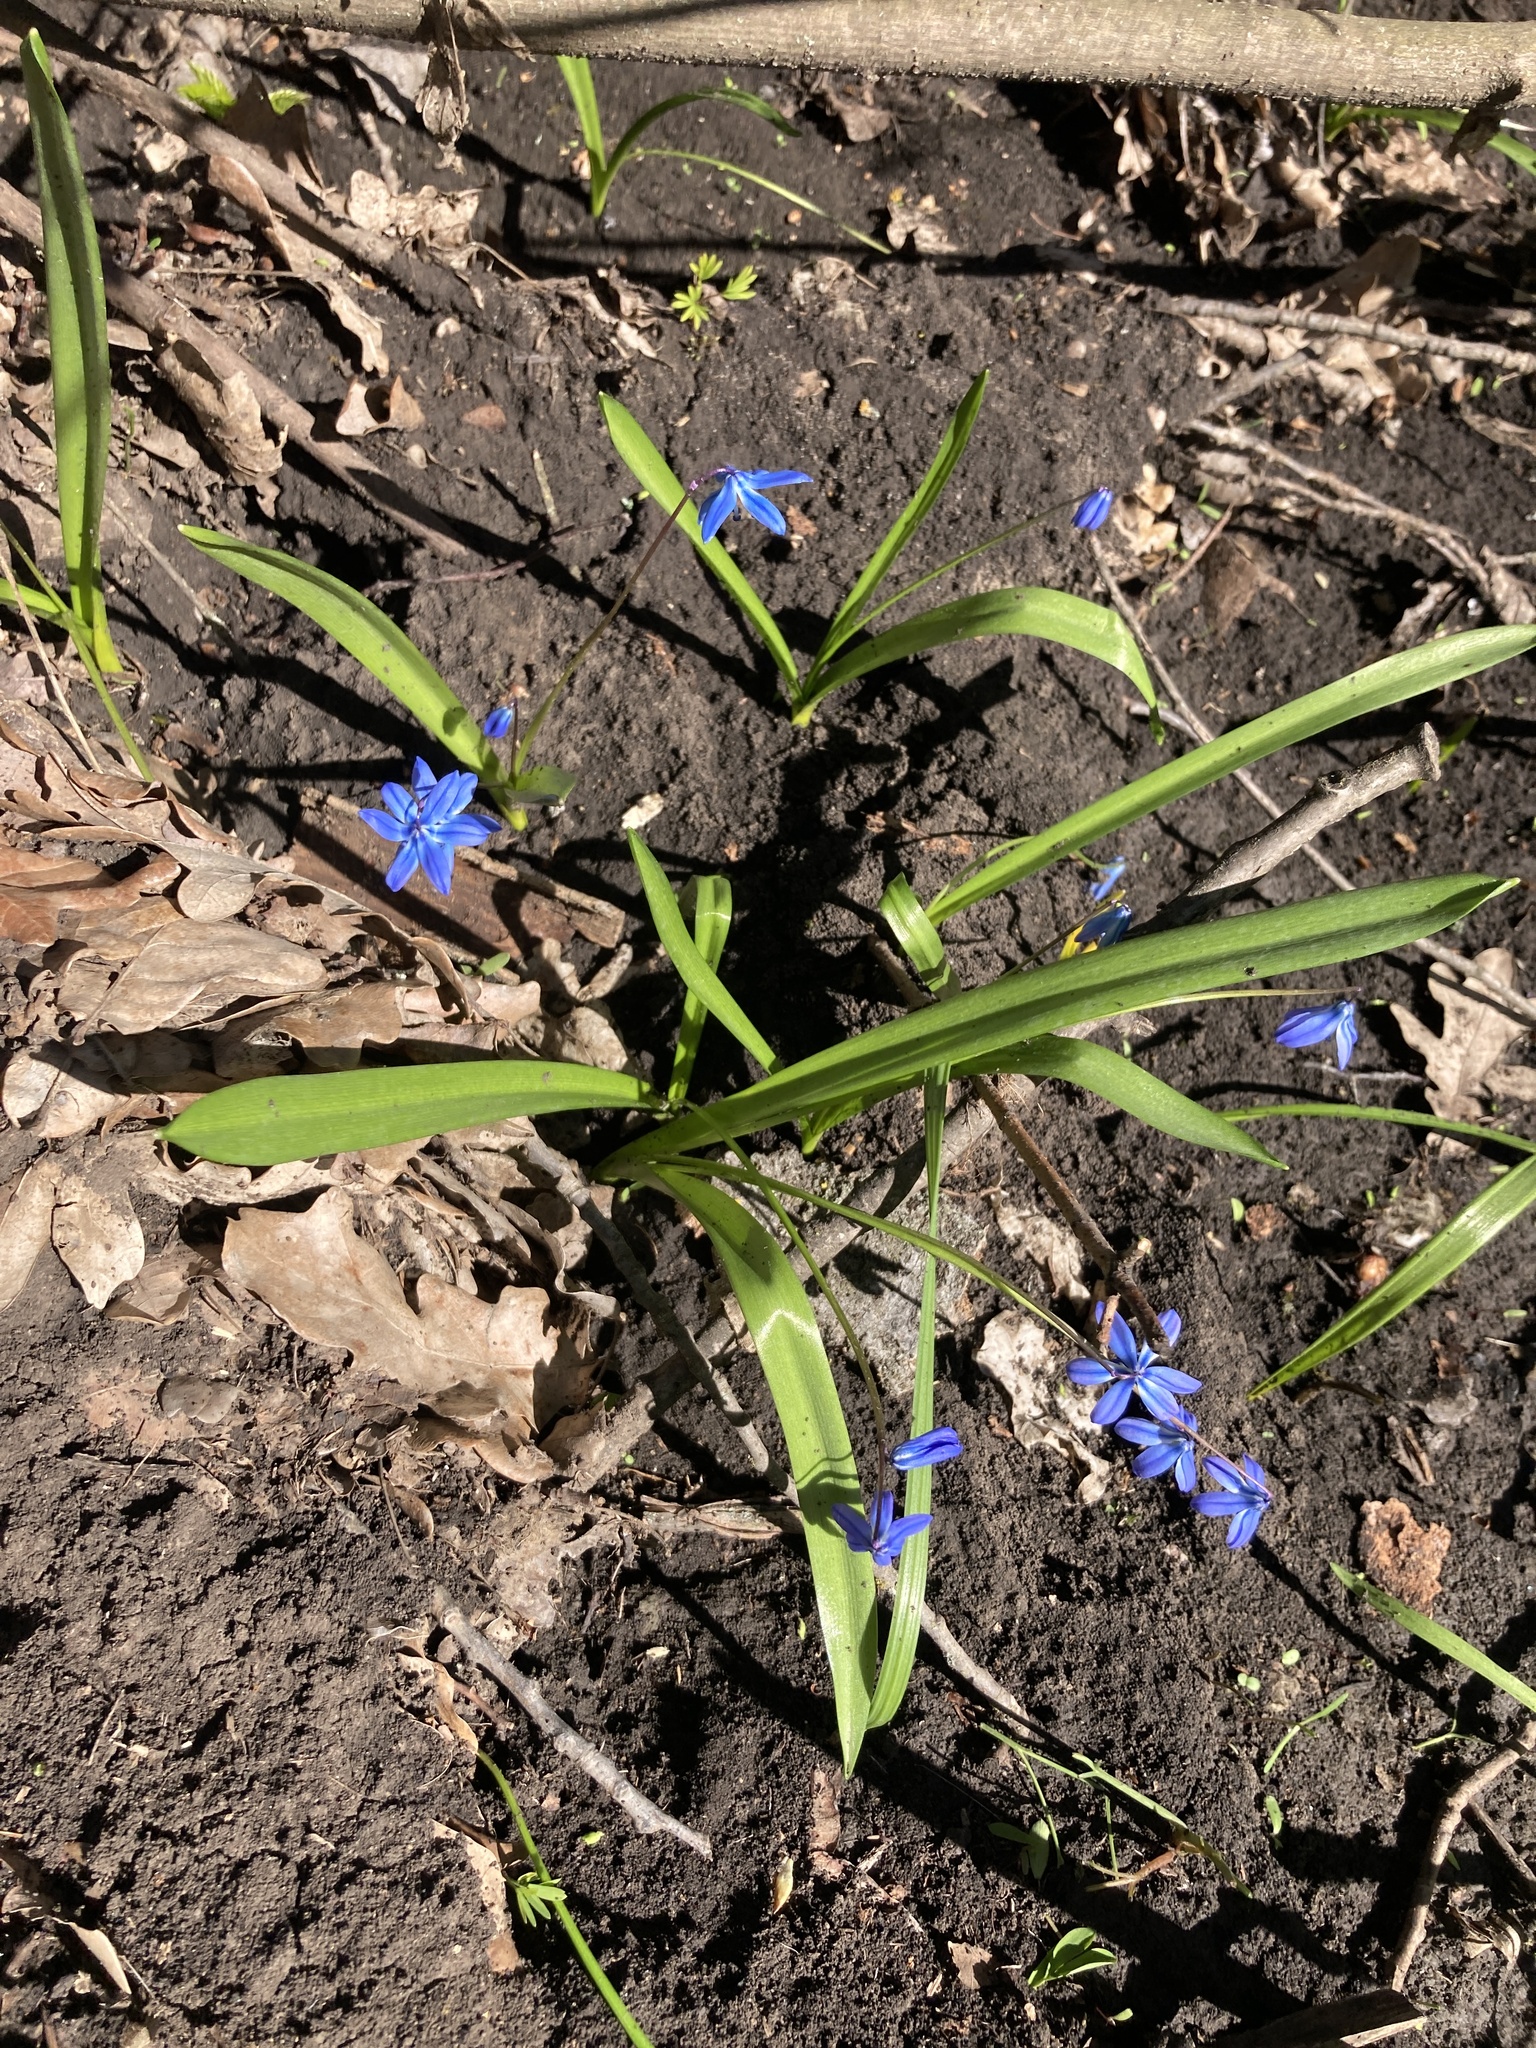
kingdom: Plantae
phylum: Tracheophyta
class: Liliopsida
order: Asparagales
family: Asparagaceae
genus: Scilla
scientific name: Scilla siberica
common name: Siberian squill
